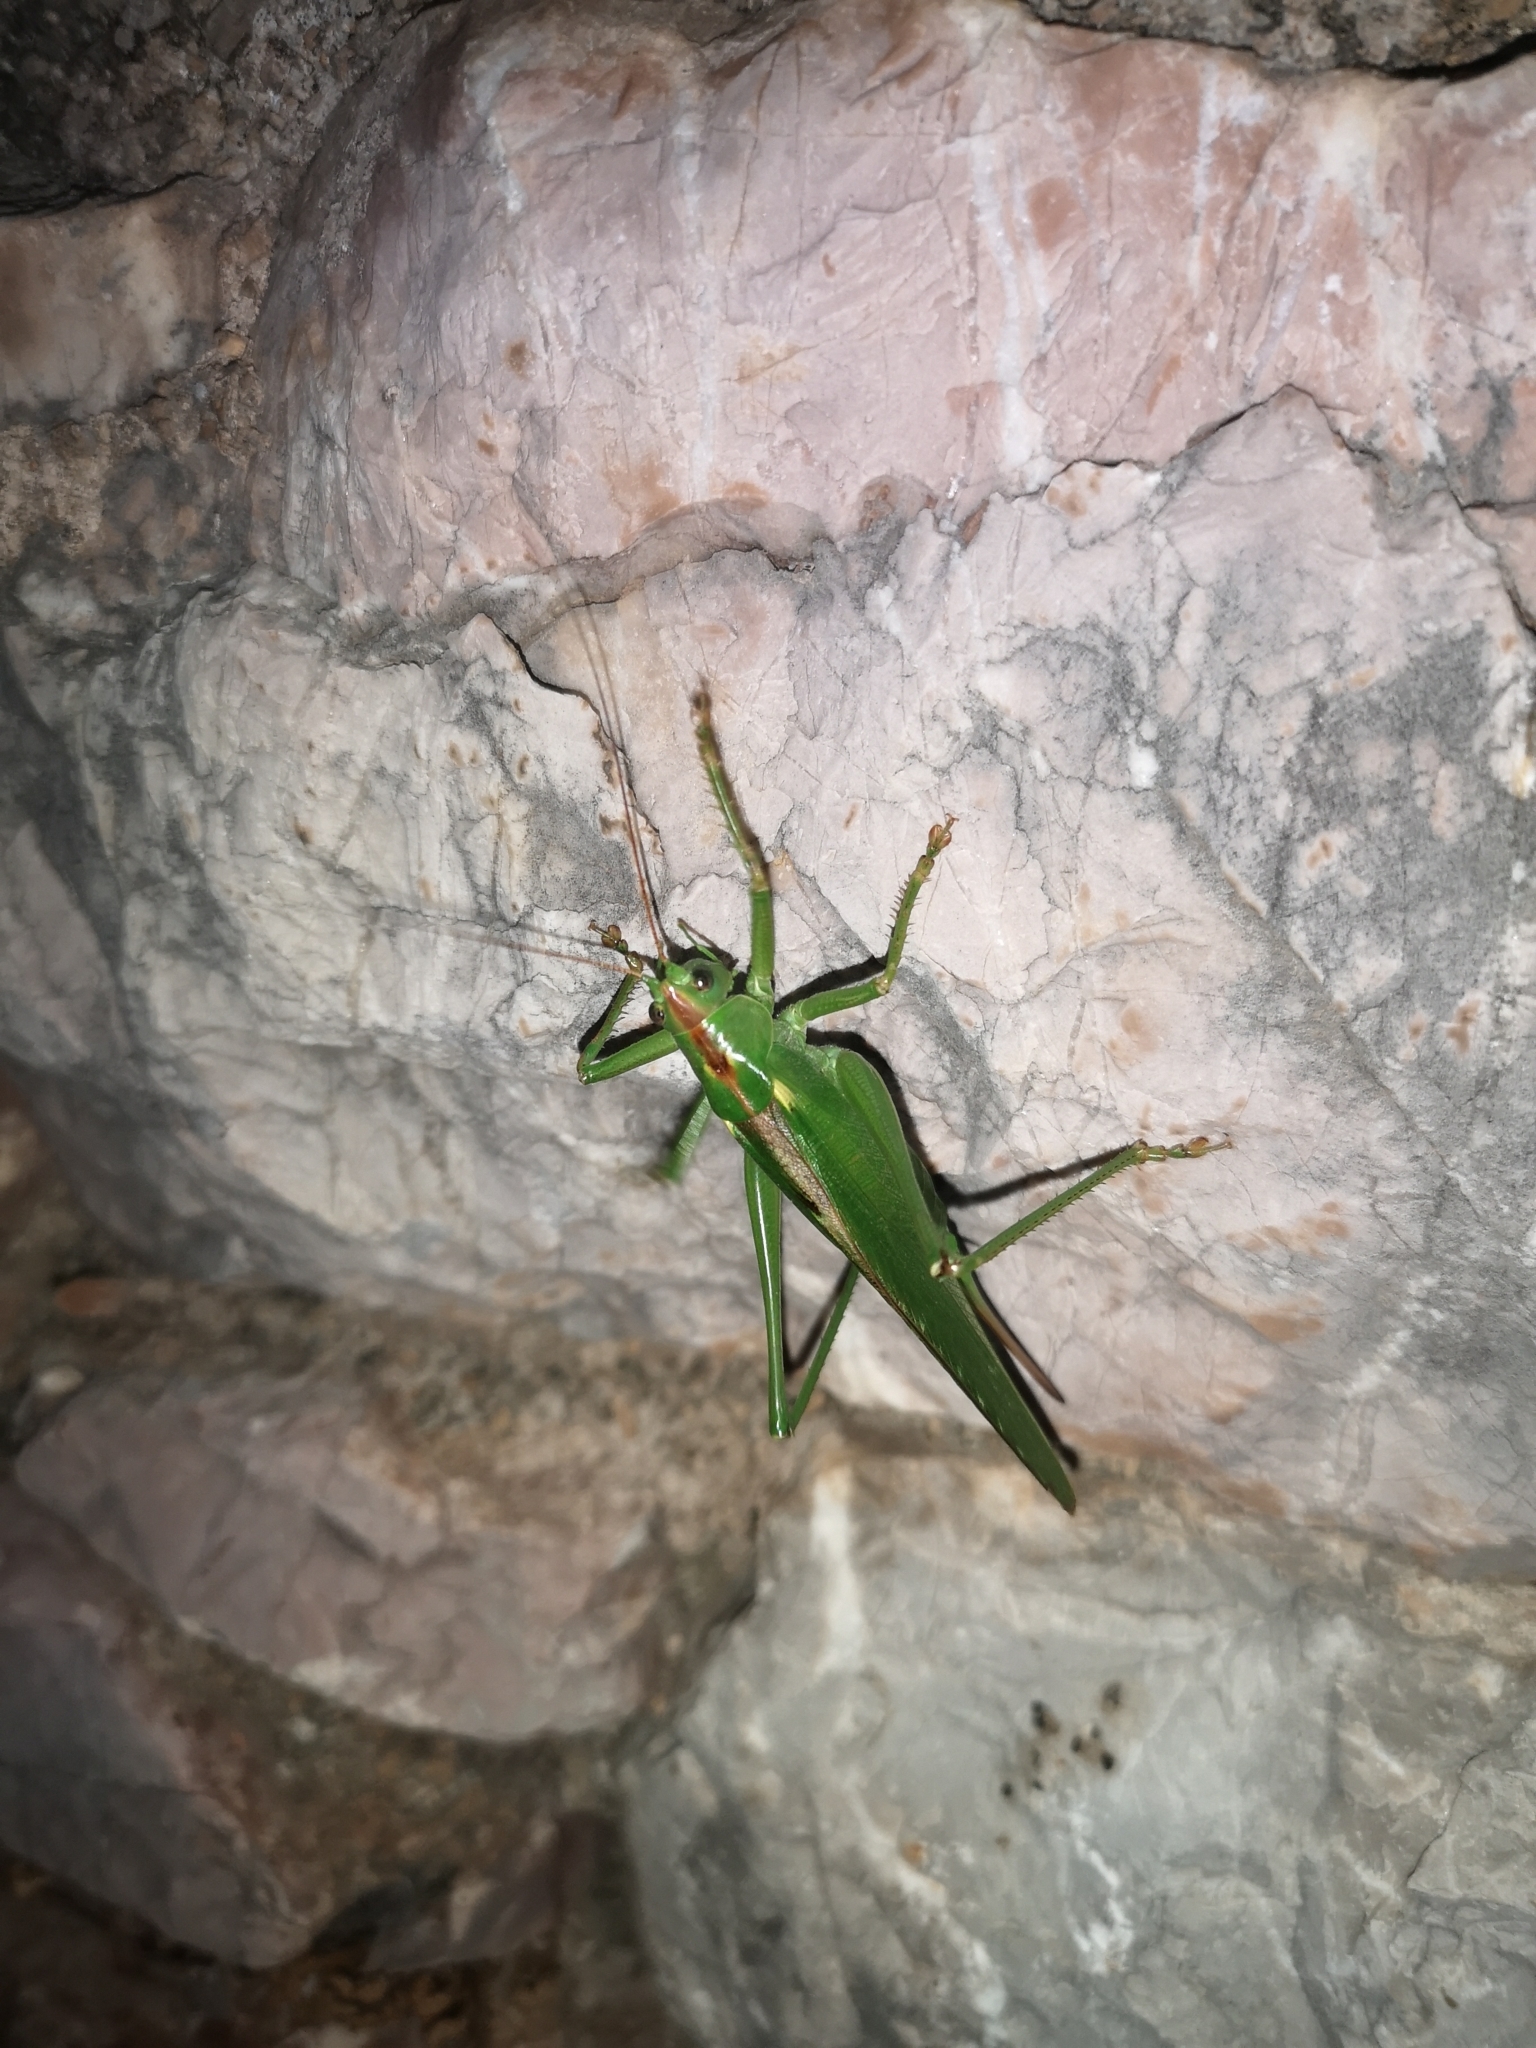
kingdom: Animalia
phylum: Arthropoda
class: Insecta
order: Orthoptera
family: Tettigoniidae
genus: Tettigonia
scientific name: Tettigonia viridissima
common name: Great green bush-cricket
